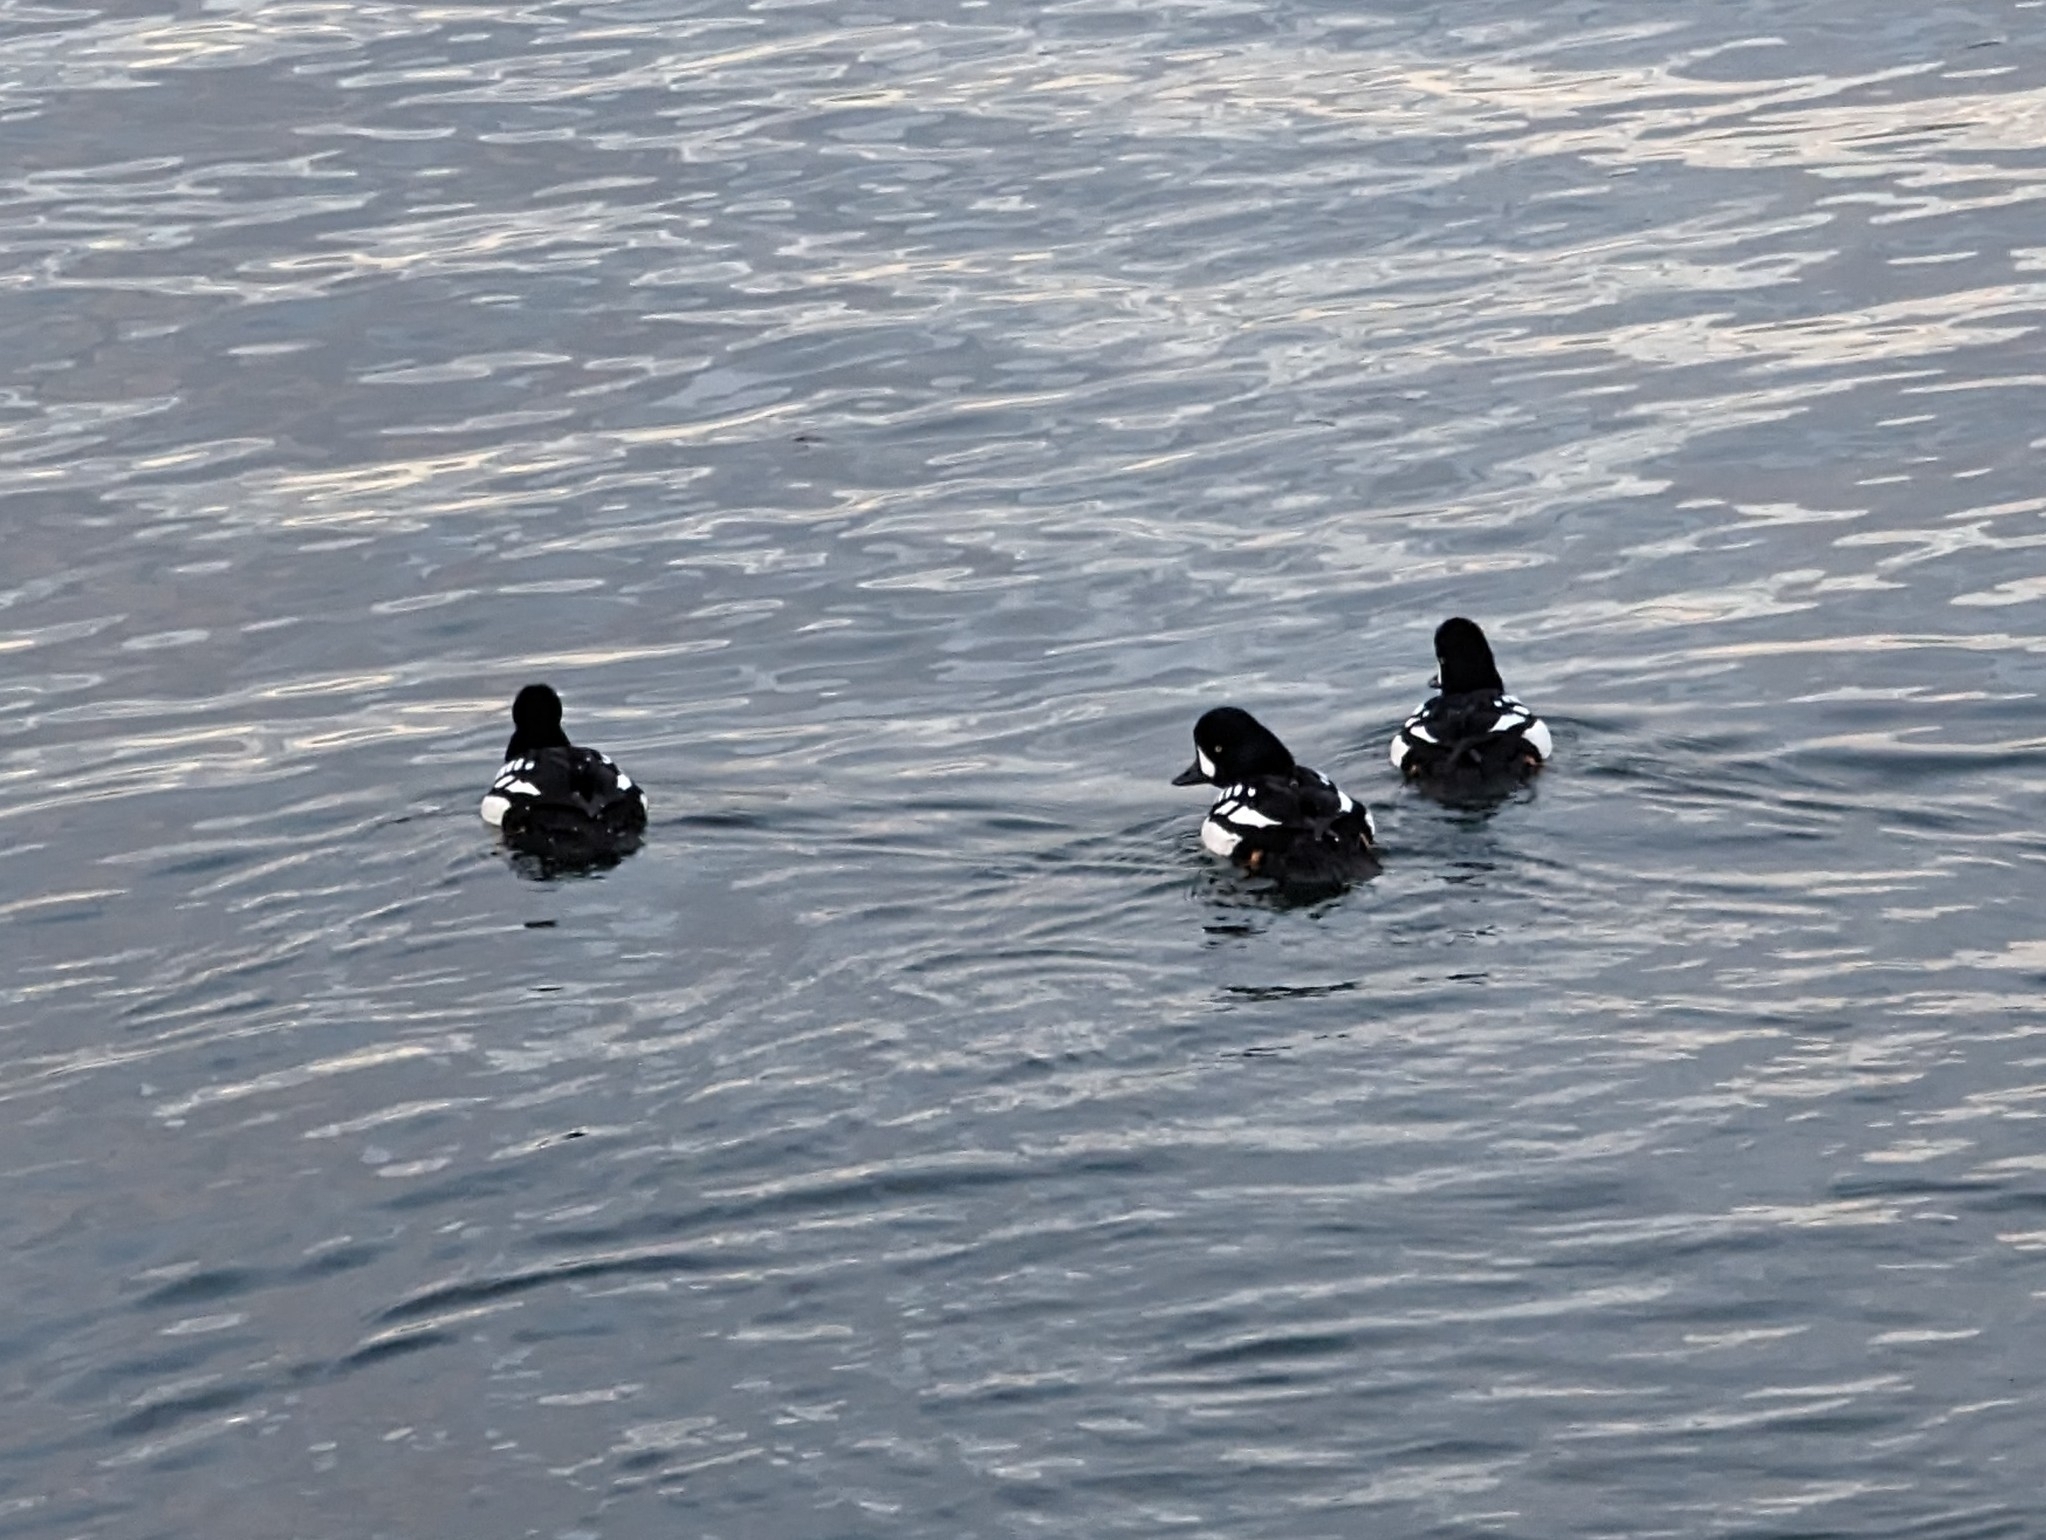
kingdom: Animalia
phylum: Chordata
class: Aves
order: Anseriformes
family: Anatidae
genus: Bucephala
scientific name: Bucephala islandica
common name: Barrow's goldeneye
